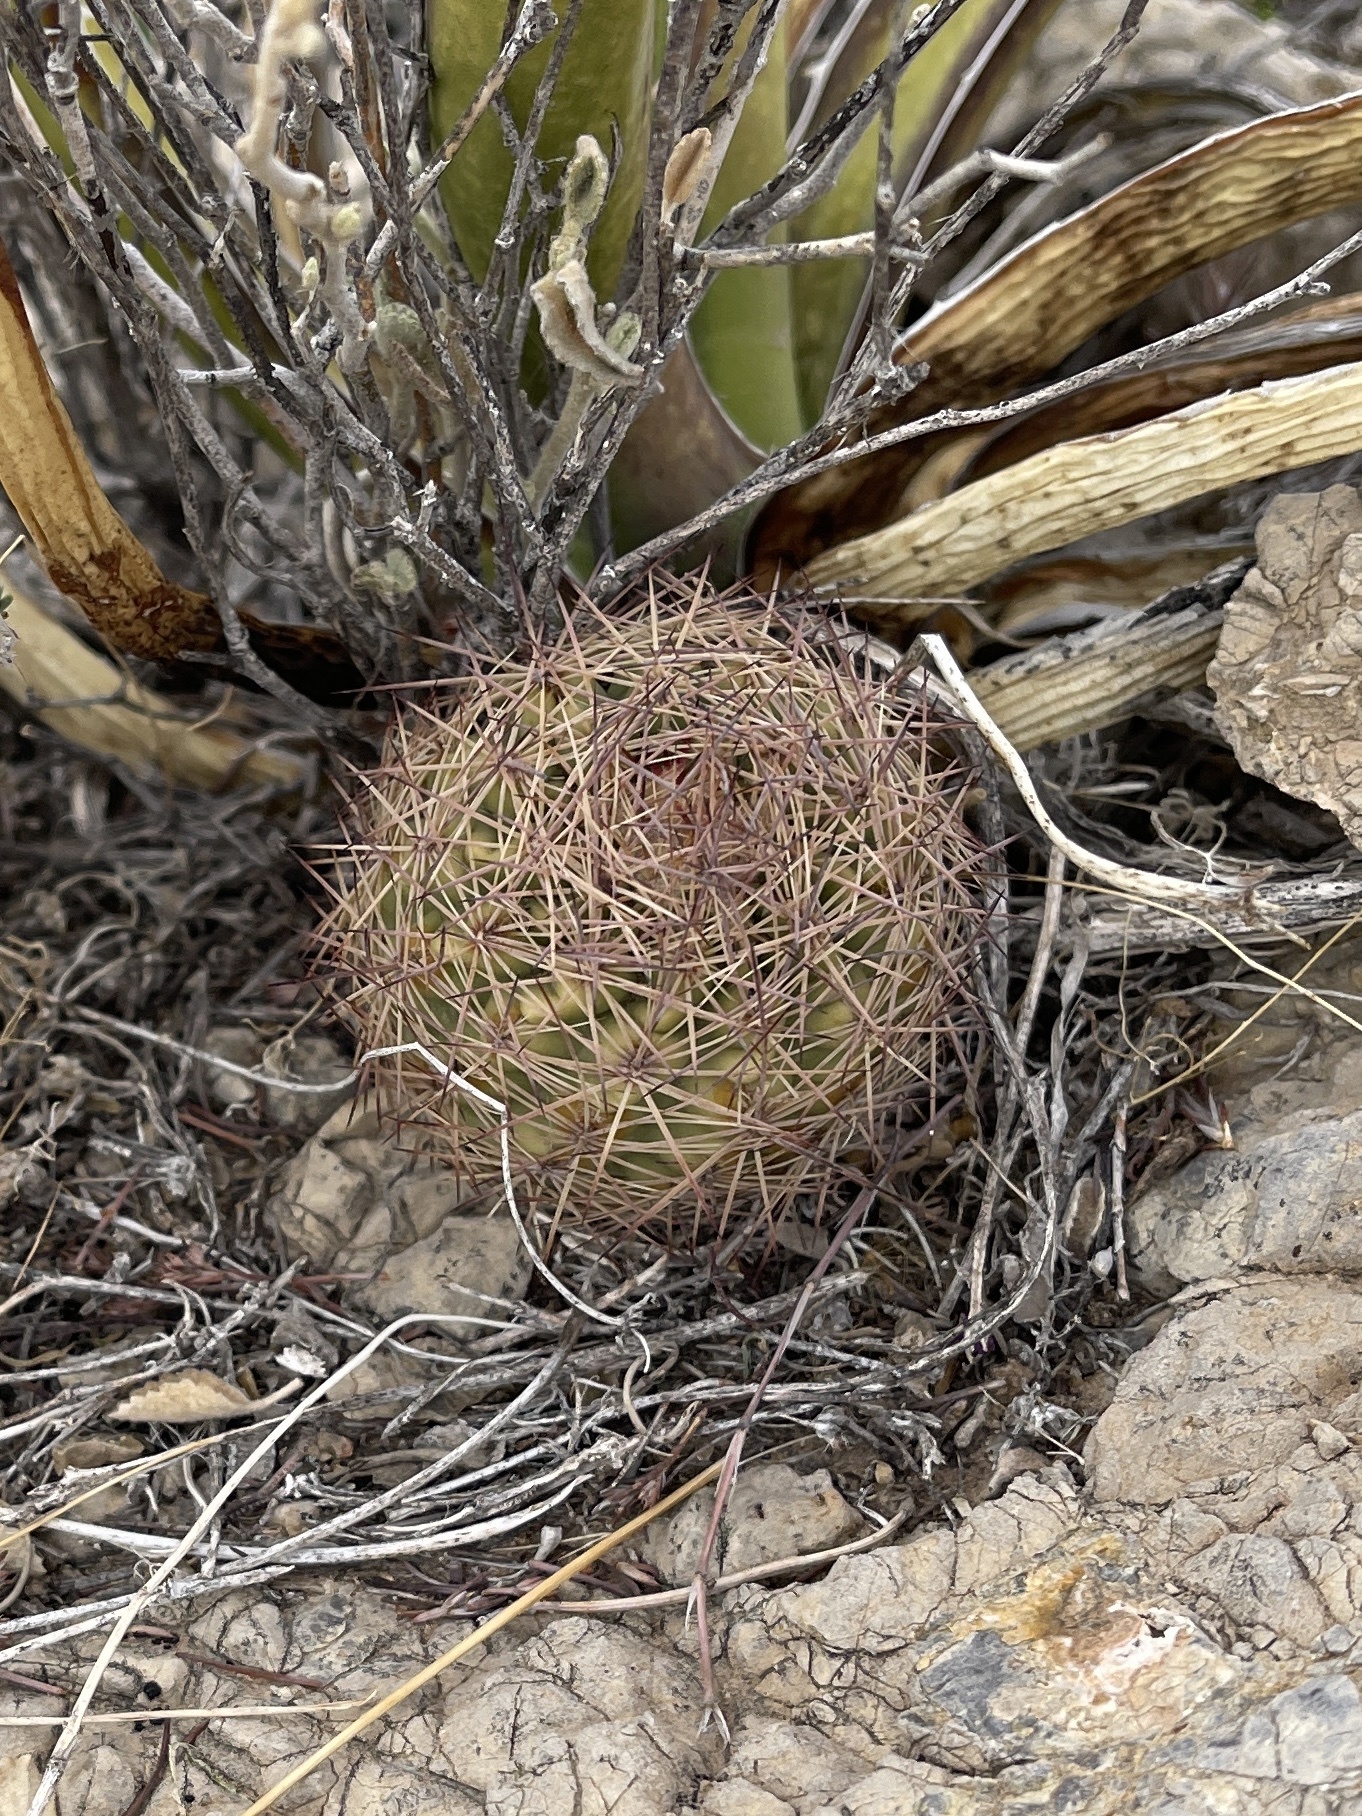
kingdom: Plantae
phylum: Tracheophyta
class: Magnoliopsida
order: Caryophyllales
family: Cactaceae
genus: Sclerocactus
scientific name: Sclerocactus intertextus
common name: White fish-hook cactus
